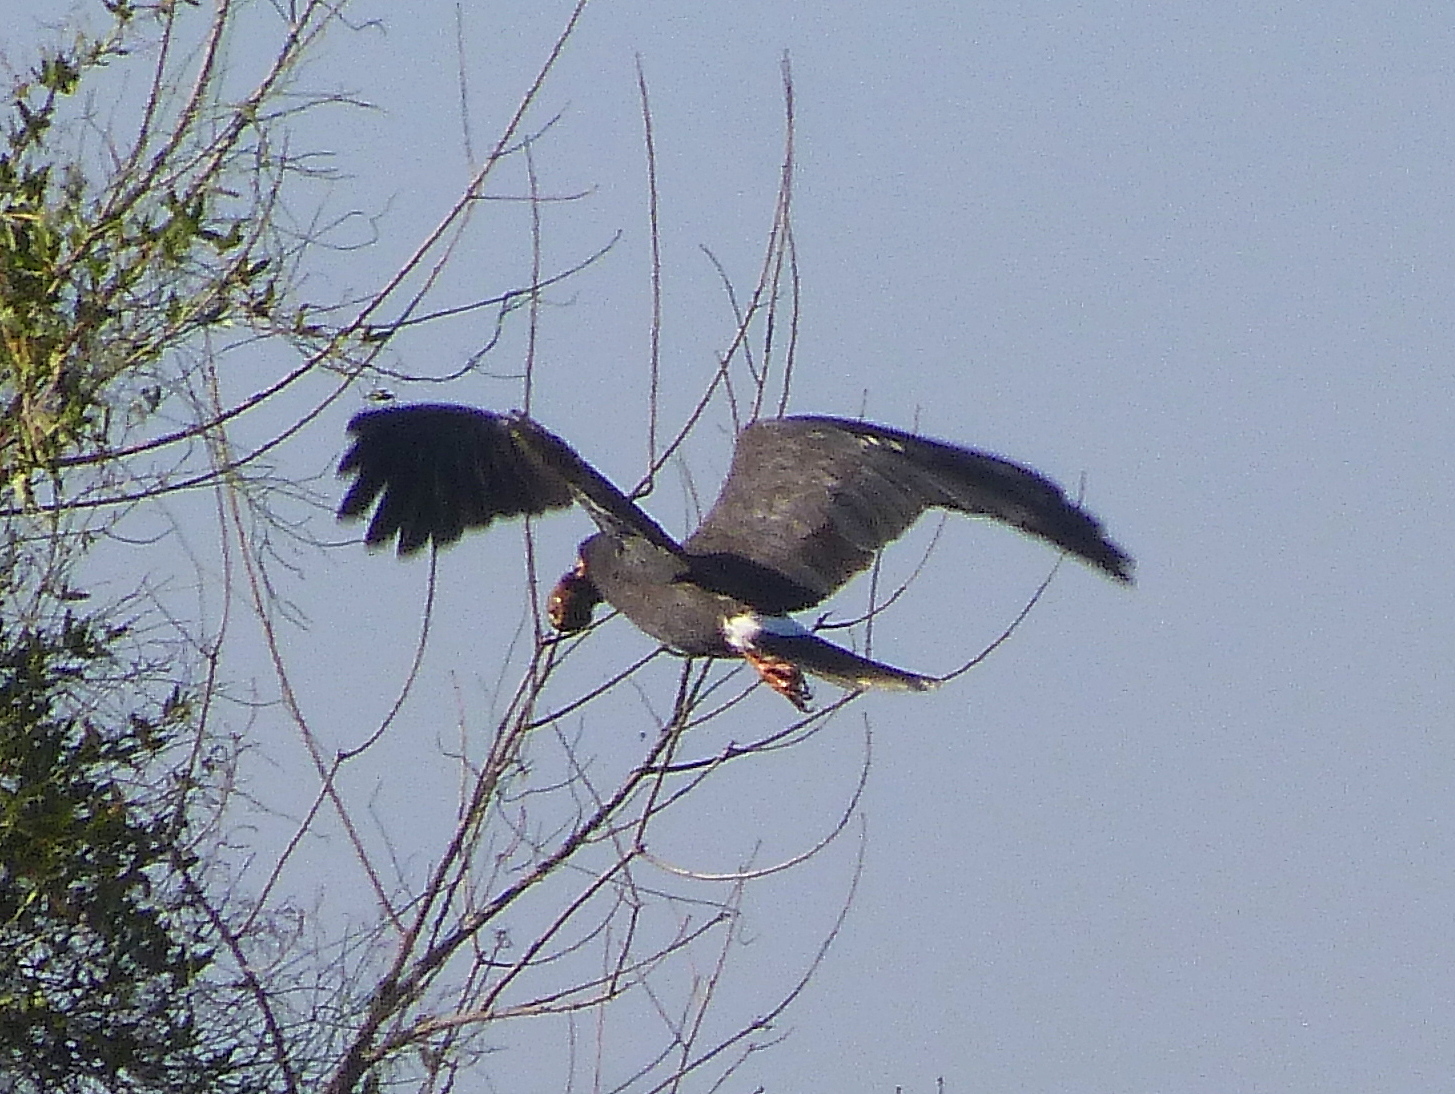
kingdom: Animalia
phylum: Chordata
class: Aves
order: Accipitriformes
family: Accipitridae
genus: Rostrhamus
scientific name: Rostrhamus sociabilis
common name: Snail kite
